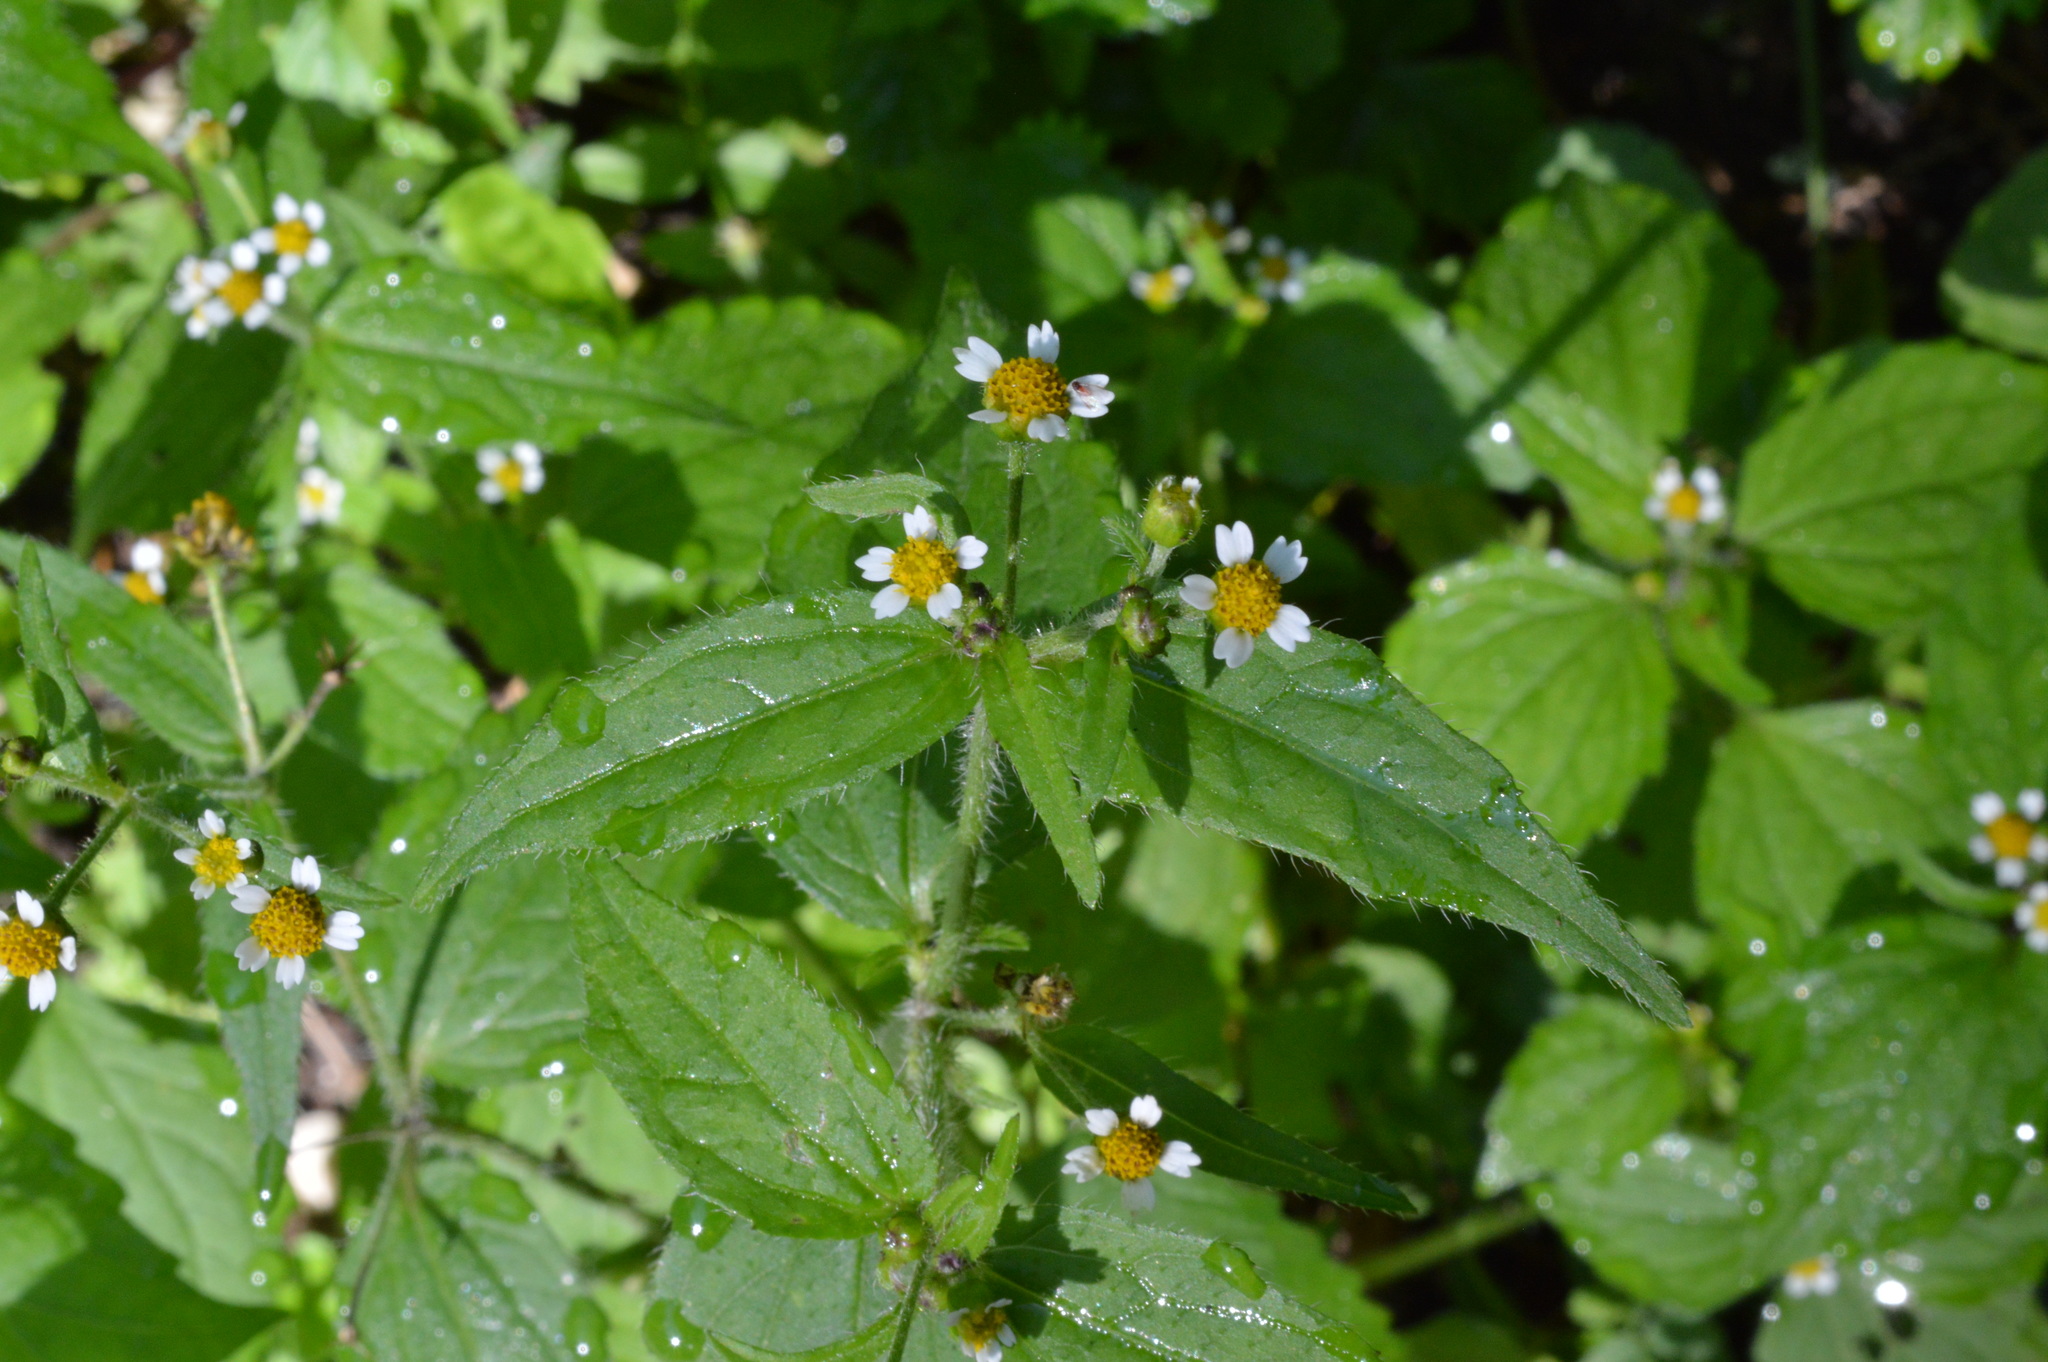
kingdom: Plantae
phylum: Tracheophyta
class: Magnoliopsida
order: Asterales
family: Asteraceae
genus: Galinsoga
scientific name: Galinsoga quadriradiata
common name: Shaggy soldier
